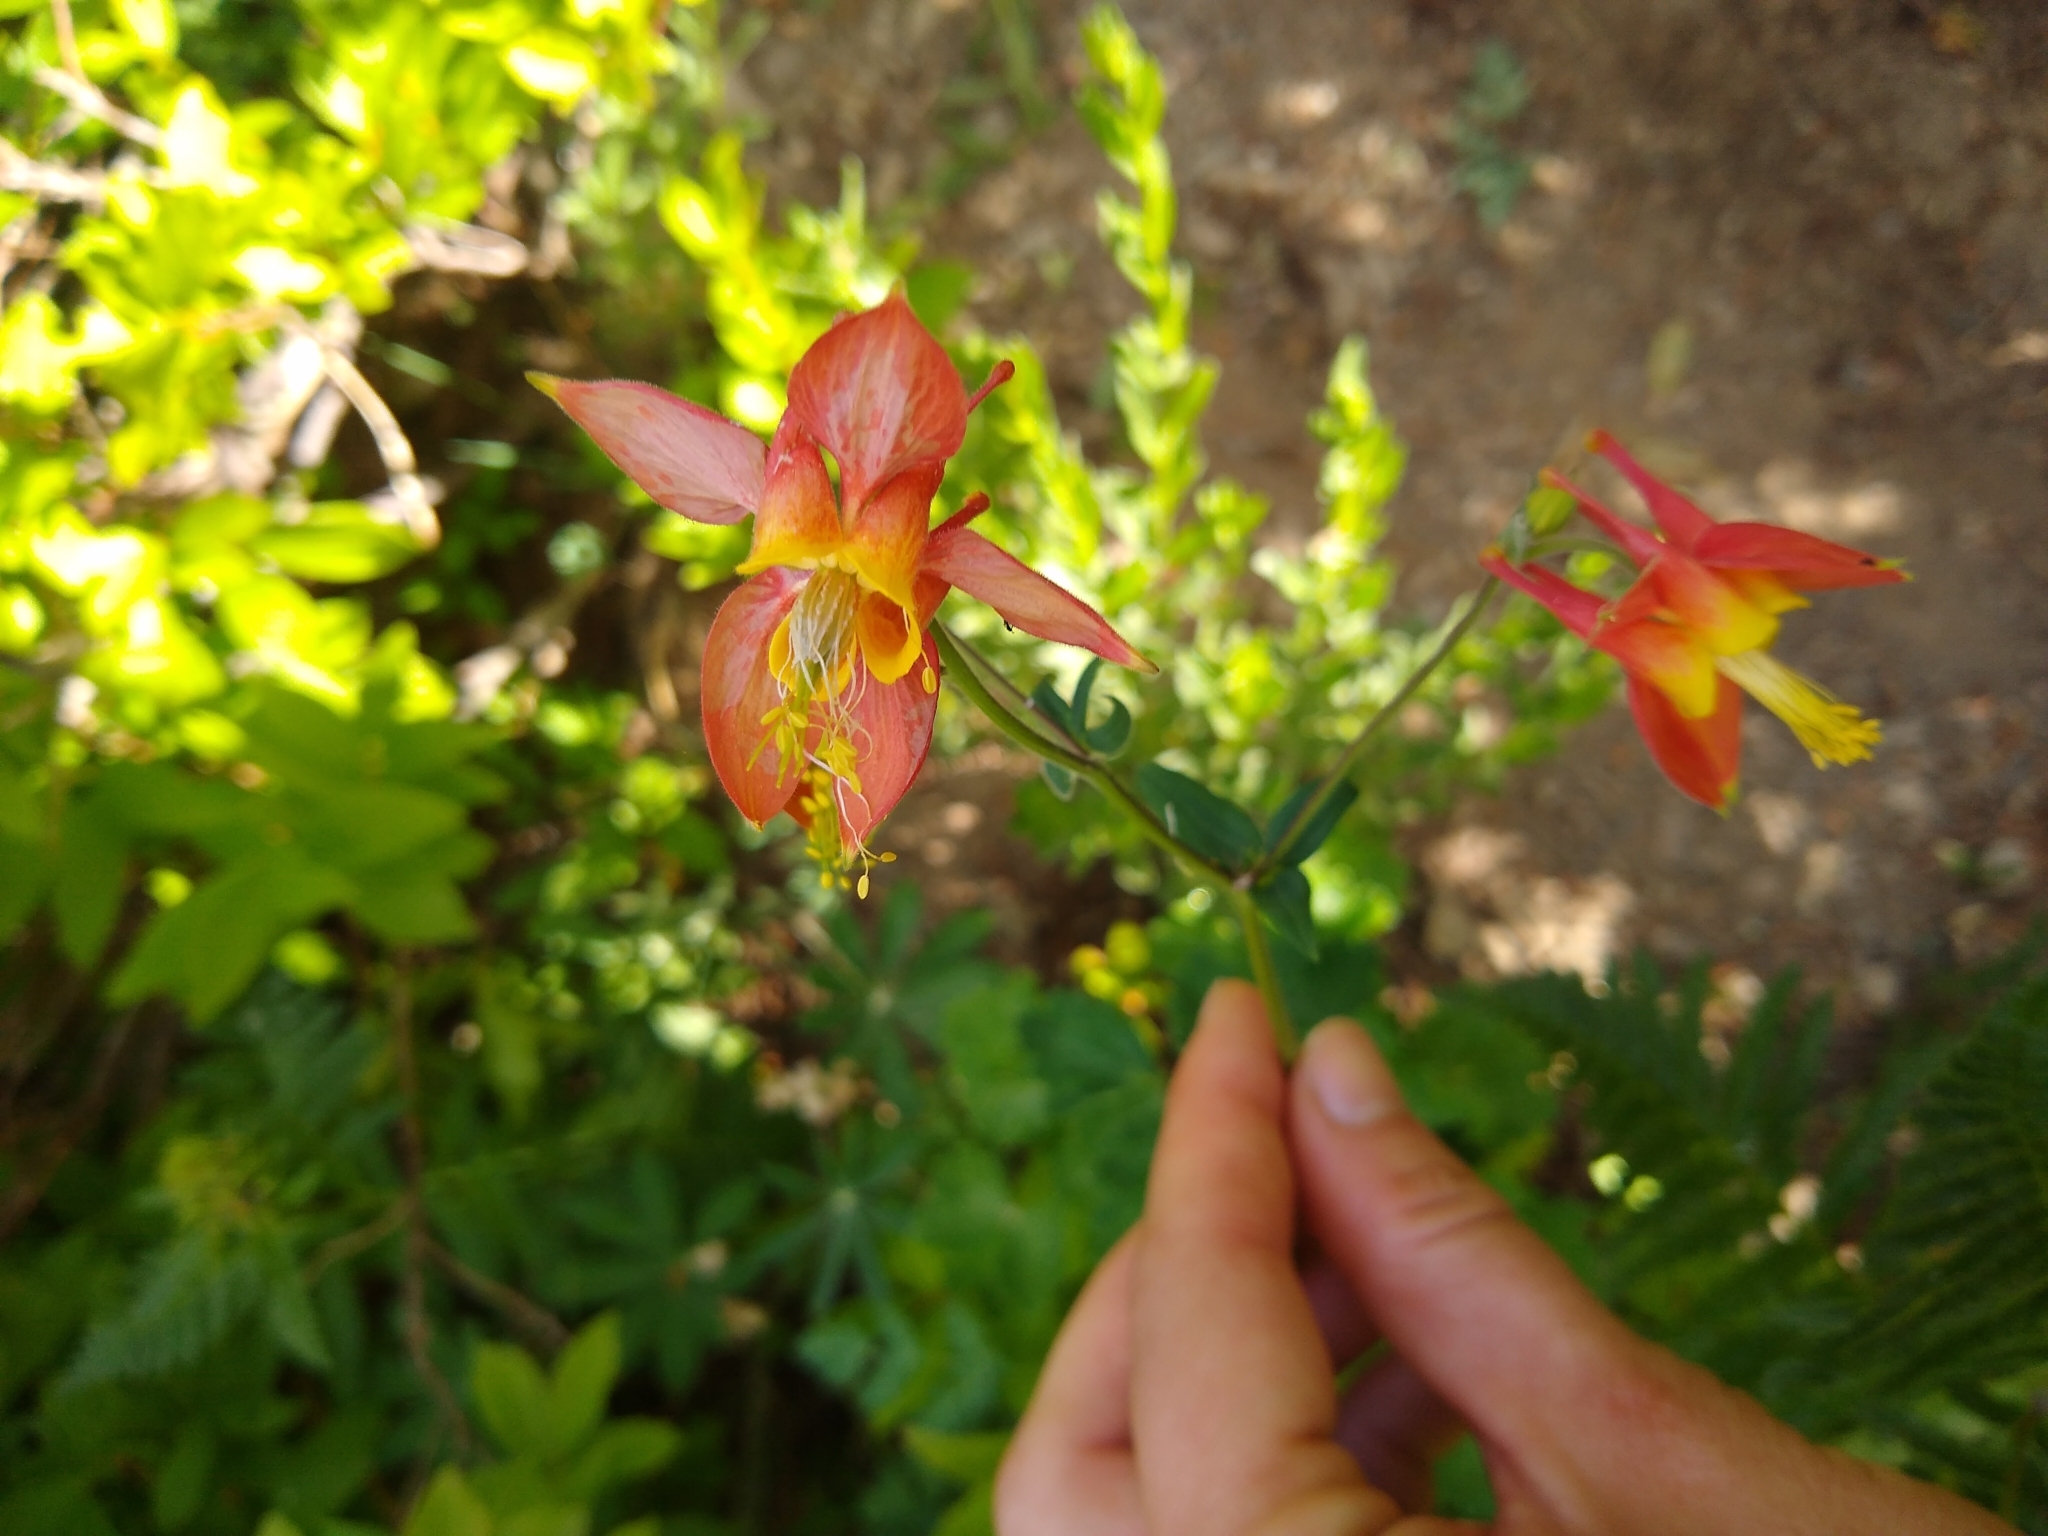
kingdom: Plantae
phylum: Tracheophyta
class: Magnoliopsida
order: Ranunculales
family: Ranunculaceae
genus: Aquilegia
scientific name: Aquilegia formosa
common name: Sitka columbine
